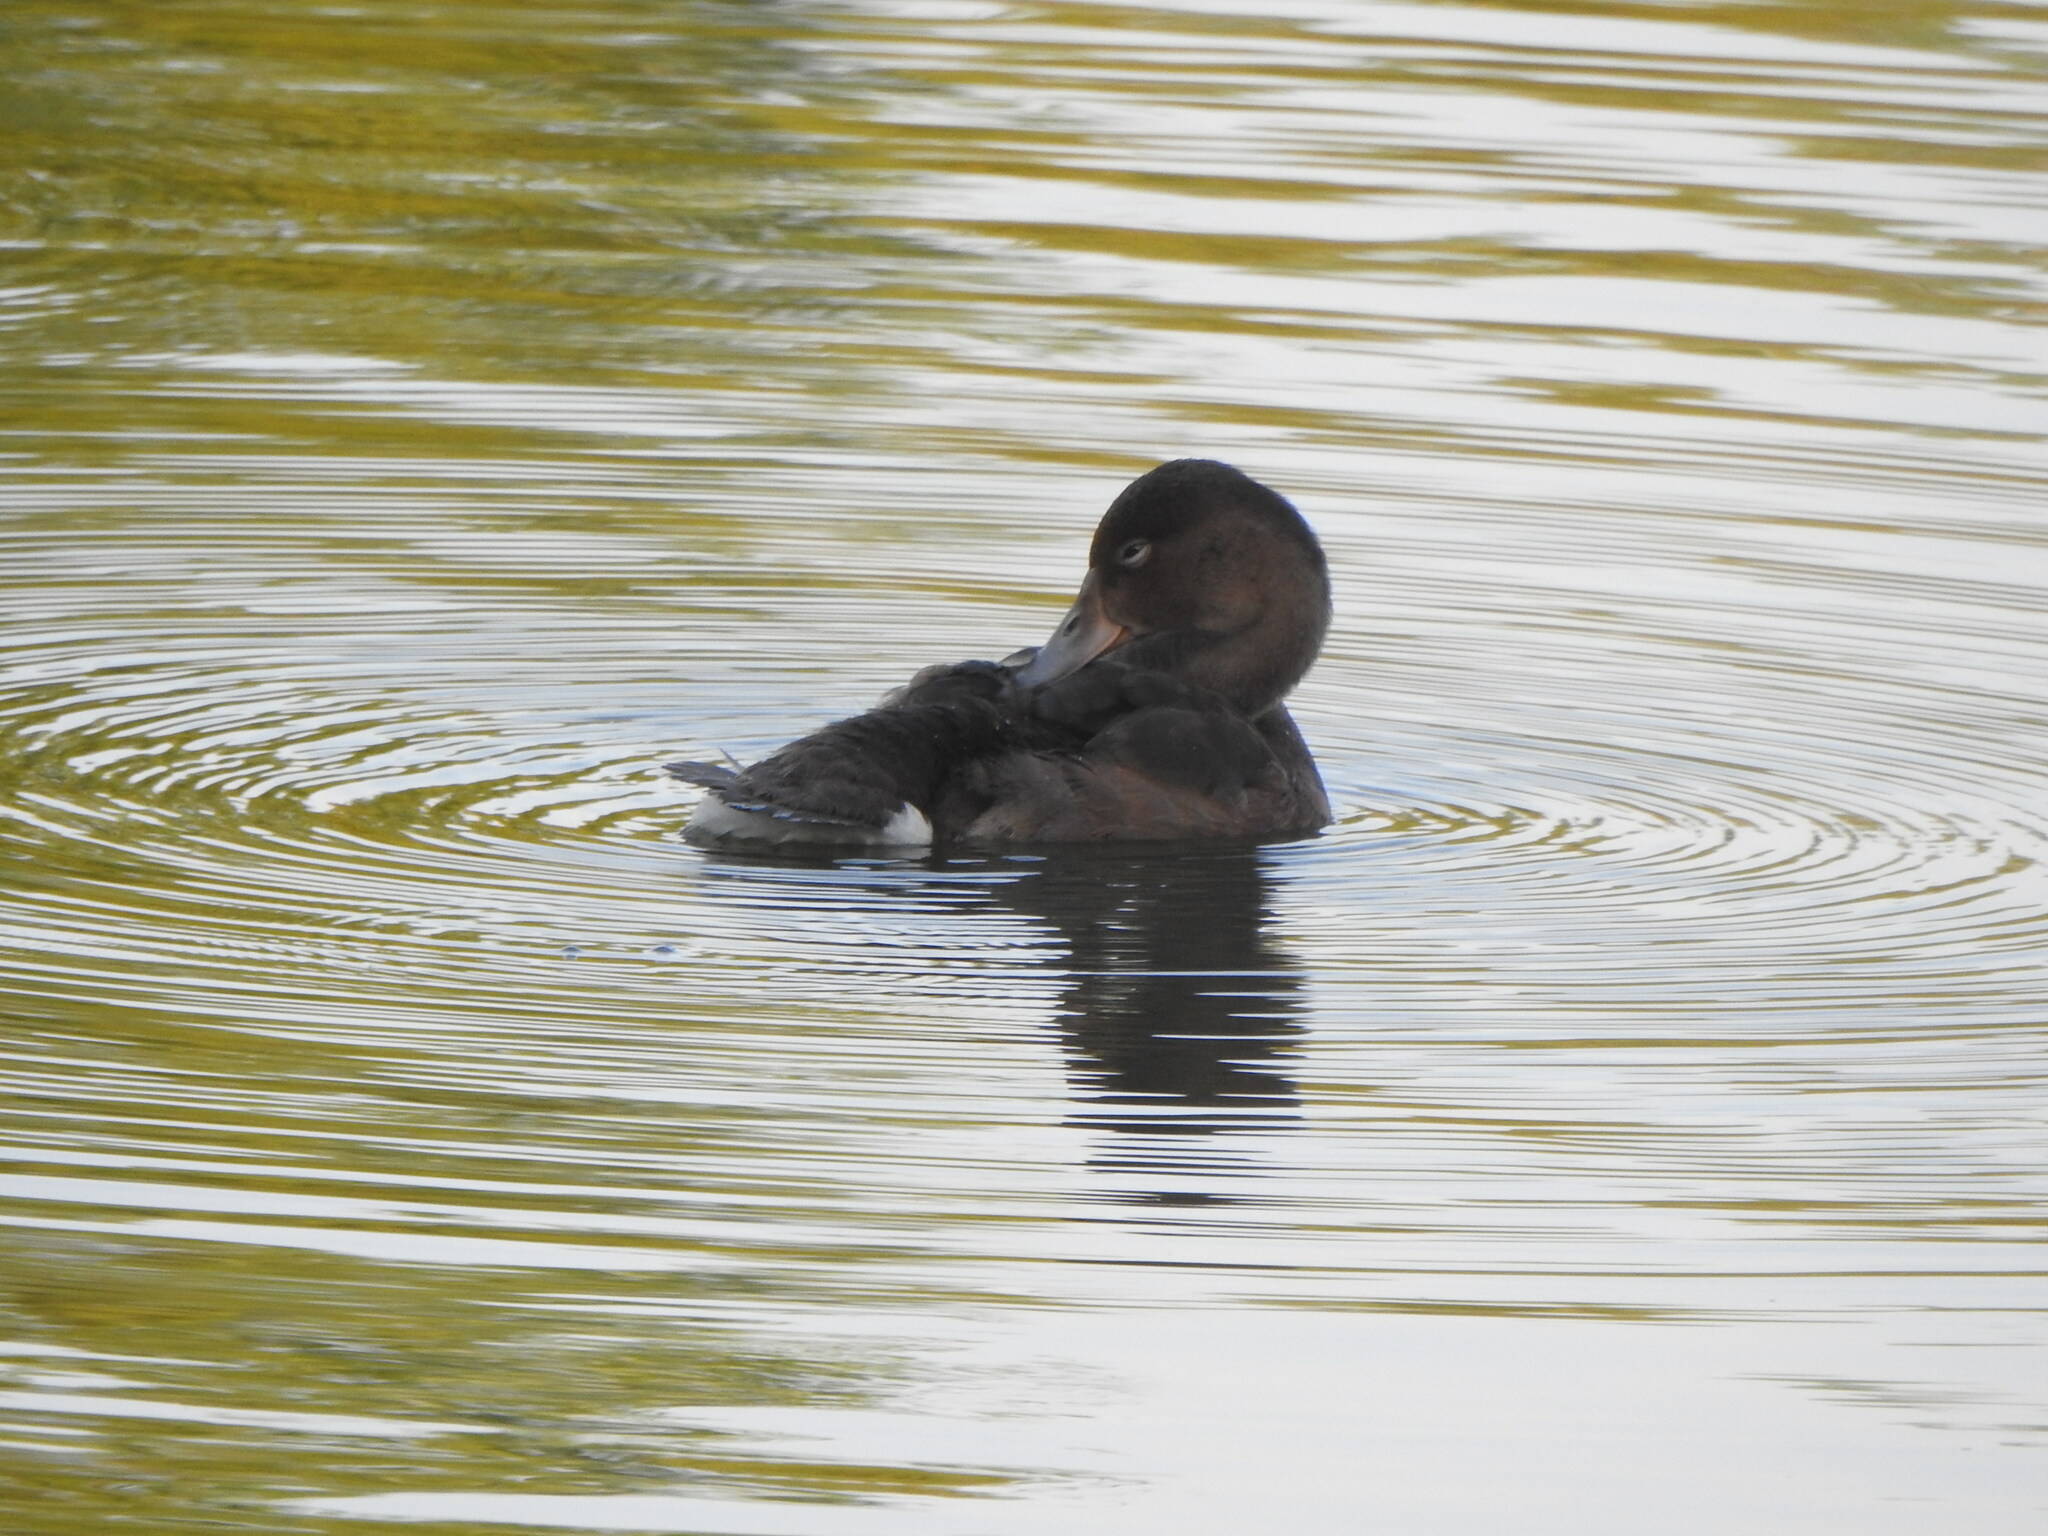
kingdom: Animalia
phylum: Chordata
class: Aves
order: Anseriformes
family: Anatidae
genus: Heteronetta
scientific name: Heteronetta atricapilla
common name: Black-headed duck
